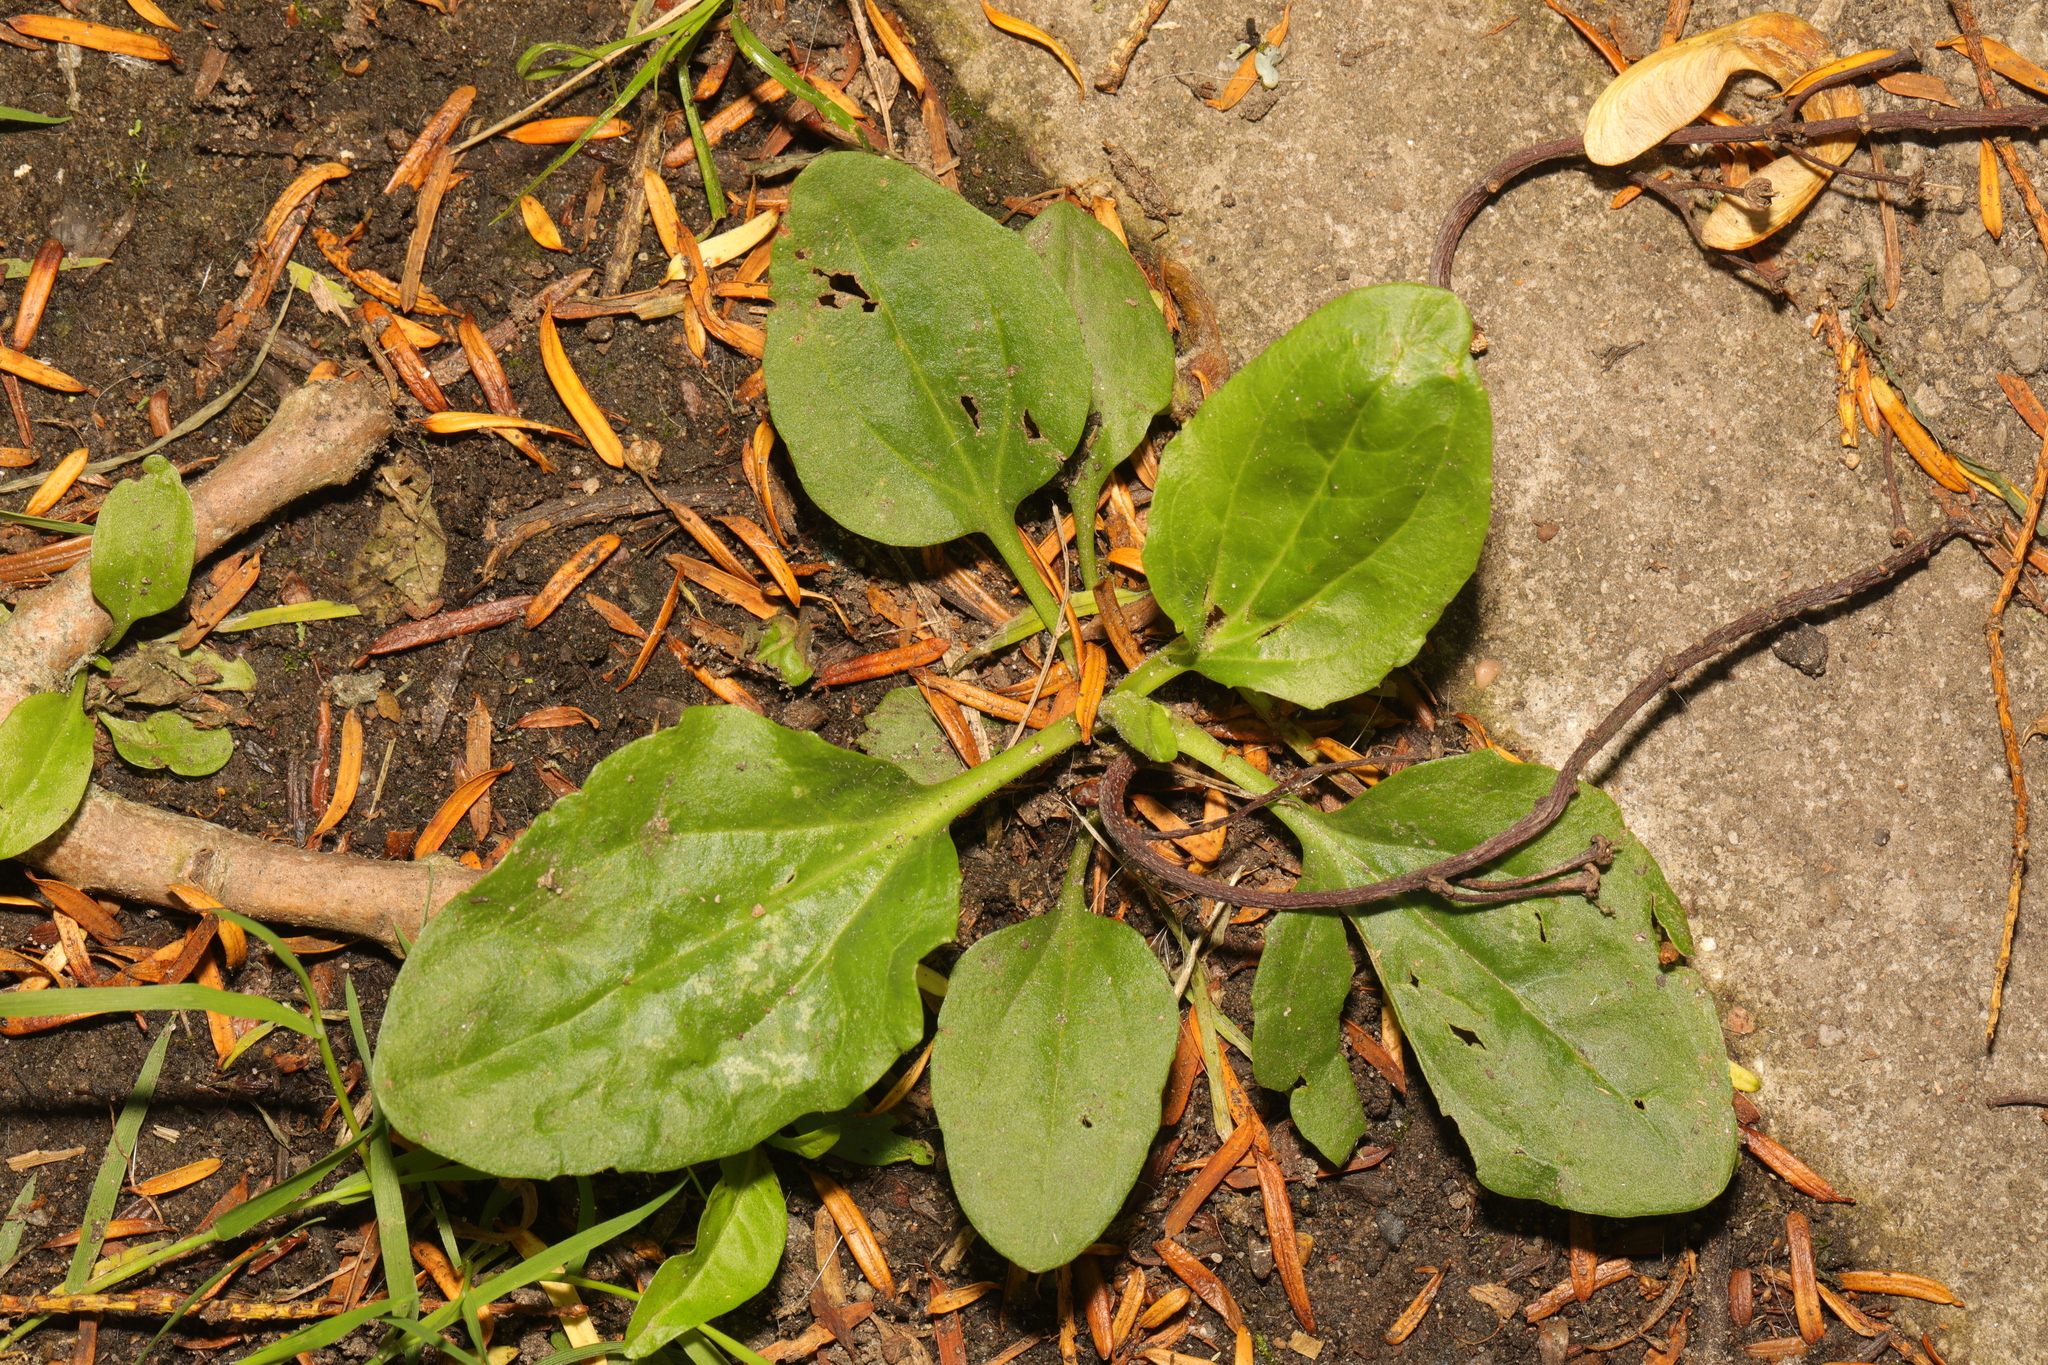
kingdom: Plantae
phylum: Tracheophyta
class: Magnoliopsida
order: Lamiales
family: Plantaginaceae
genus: Plantago
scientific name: Plantago major
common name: Common plantain
